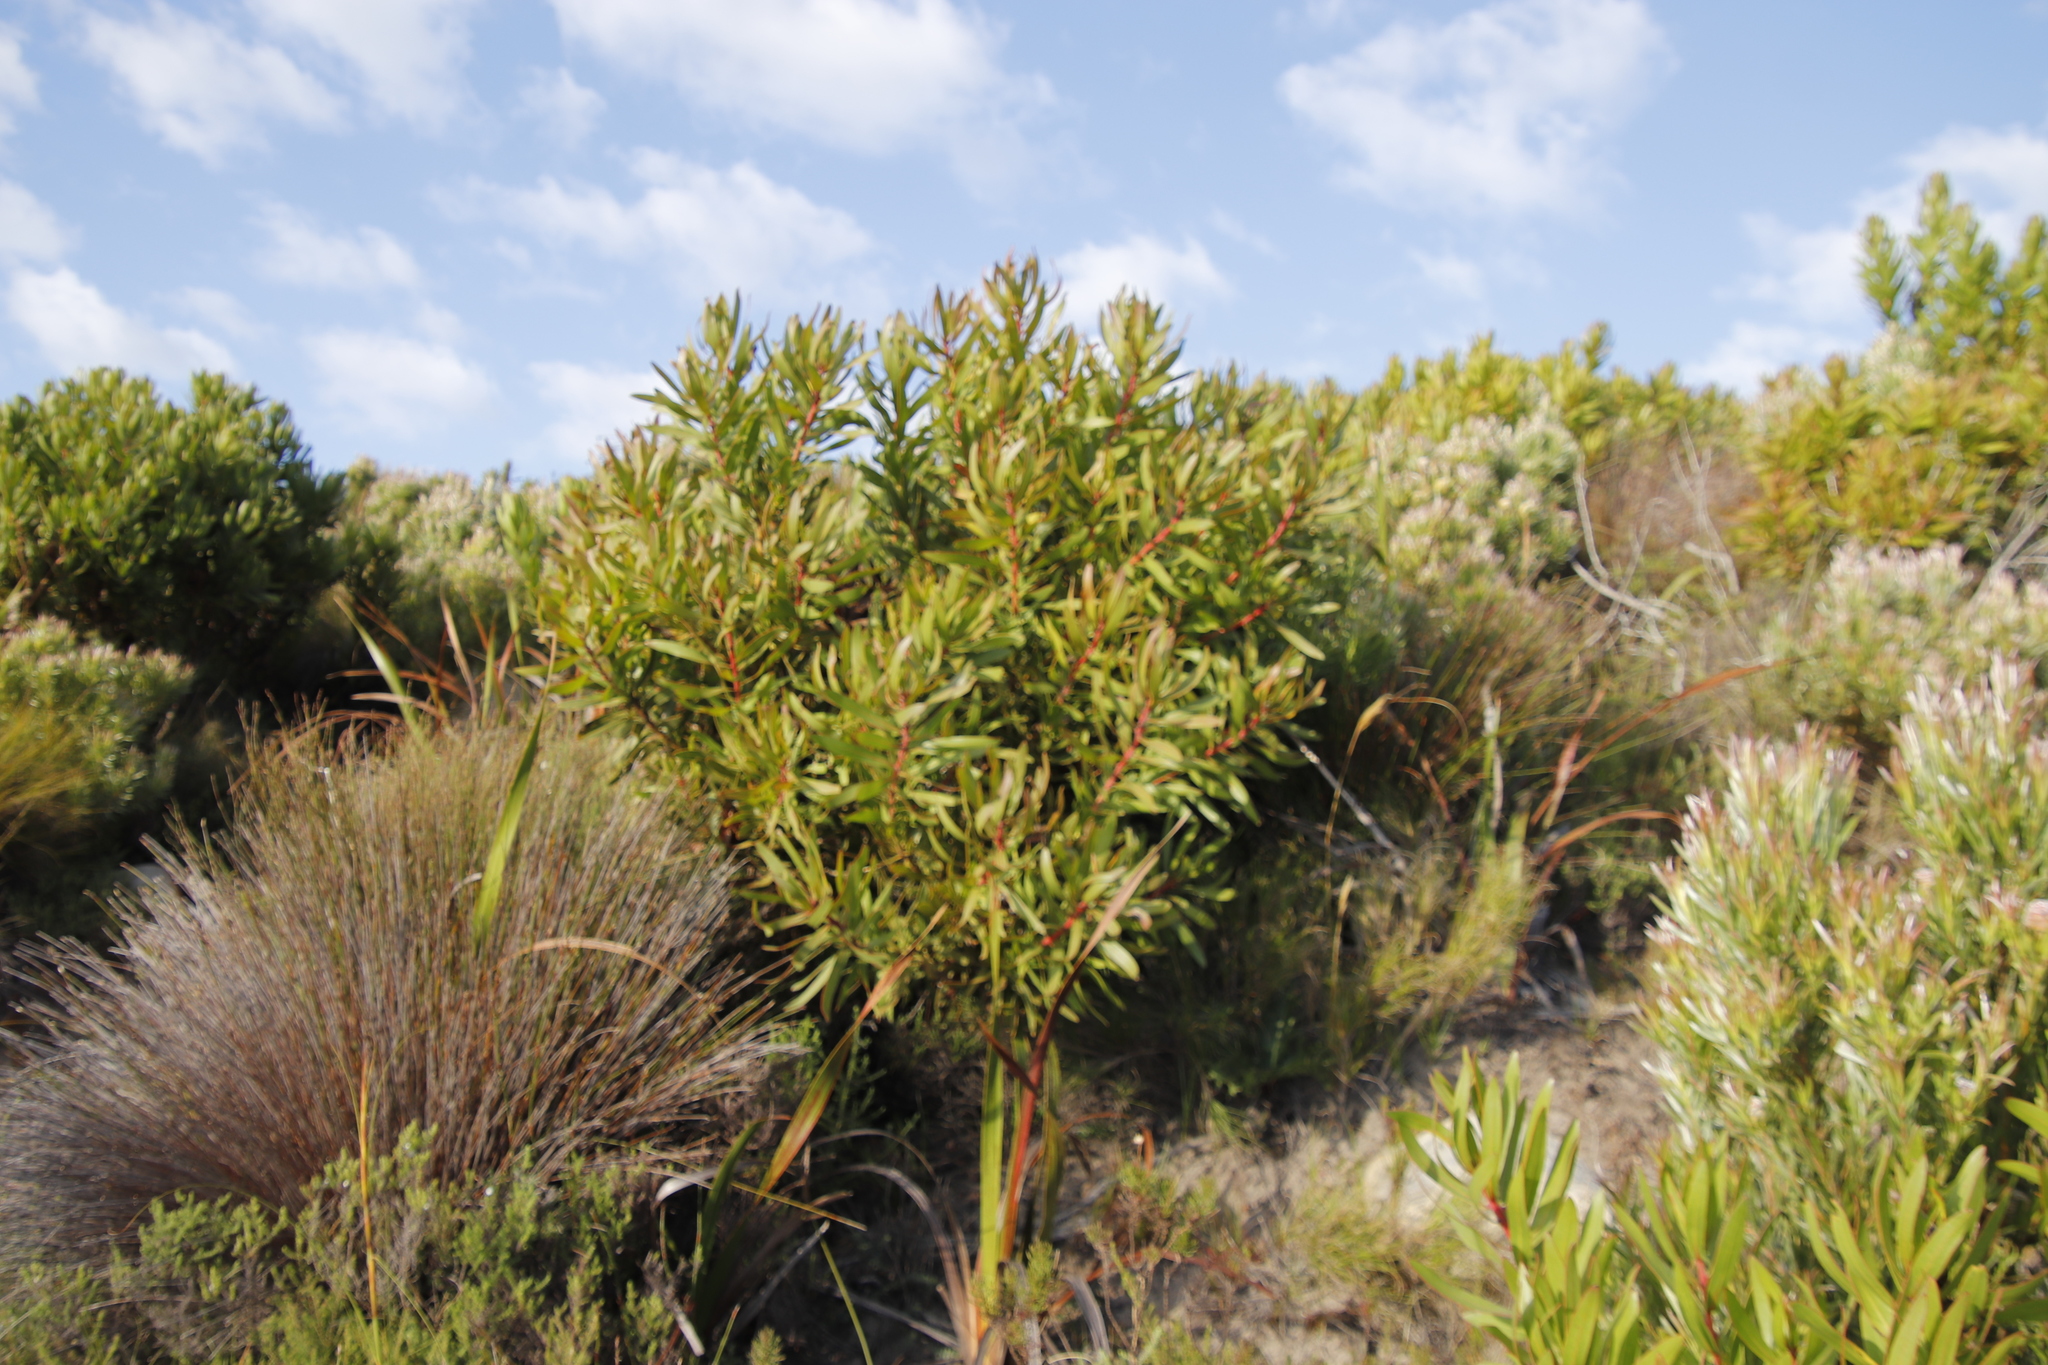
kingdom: Plantae
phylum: Tracheophyta
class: Magnoliopsida
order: Proteales
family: Proteaceae
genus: Protea
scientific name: Protea lepidocarpodendron
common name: Black-bearded protea
